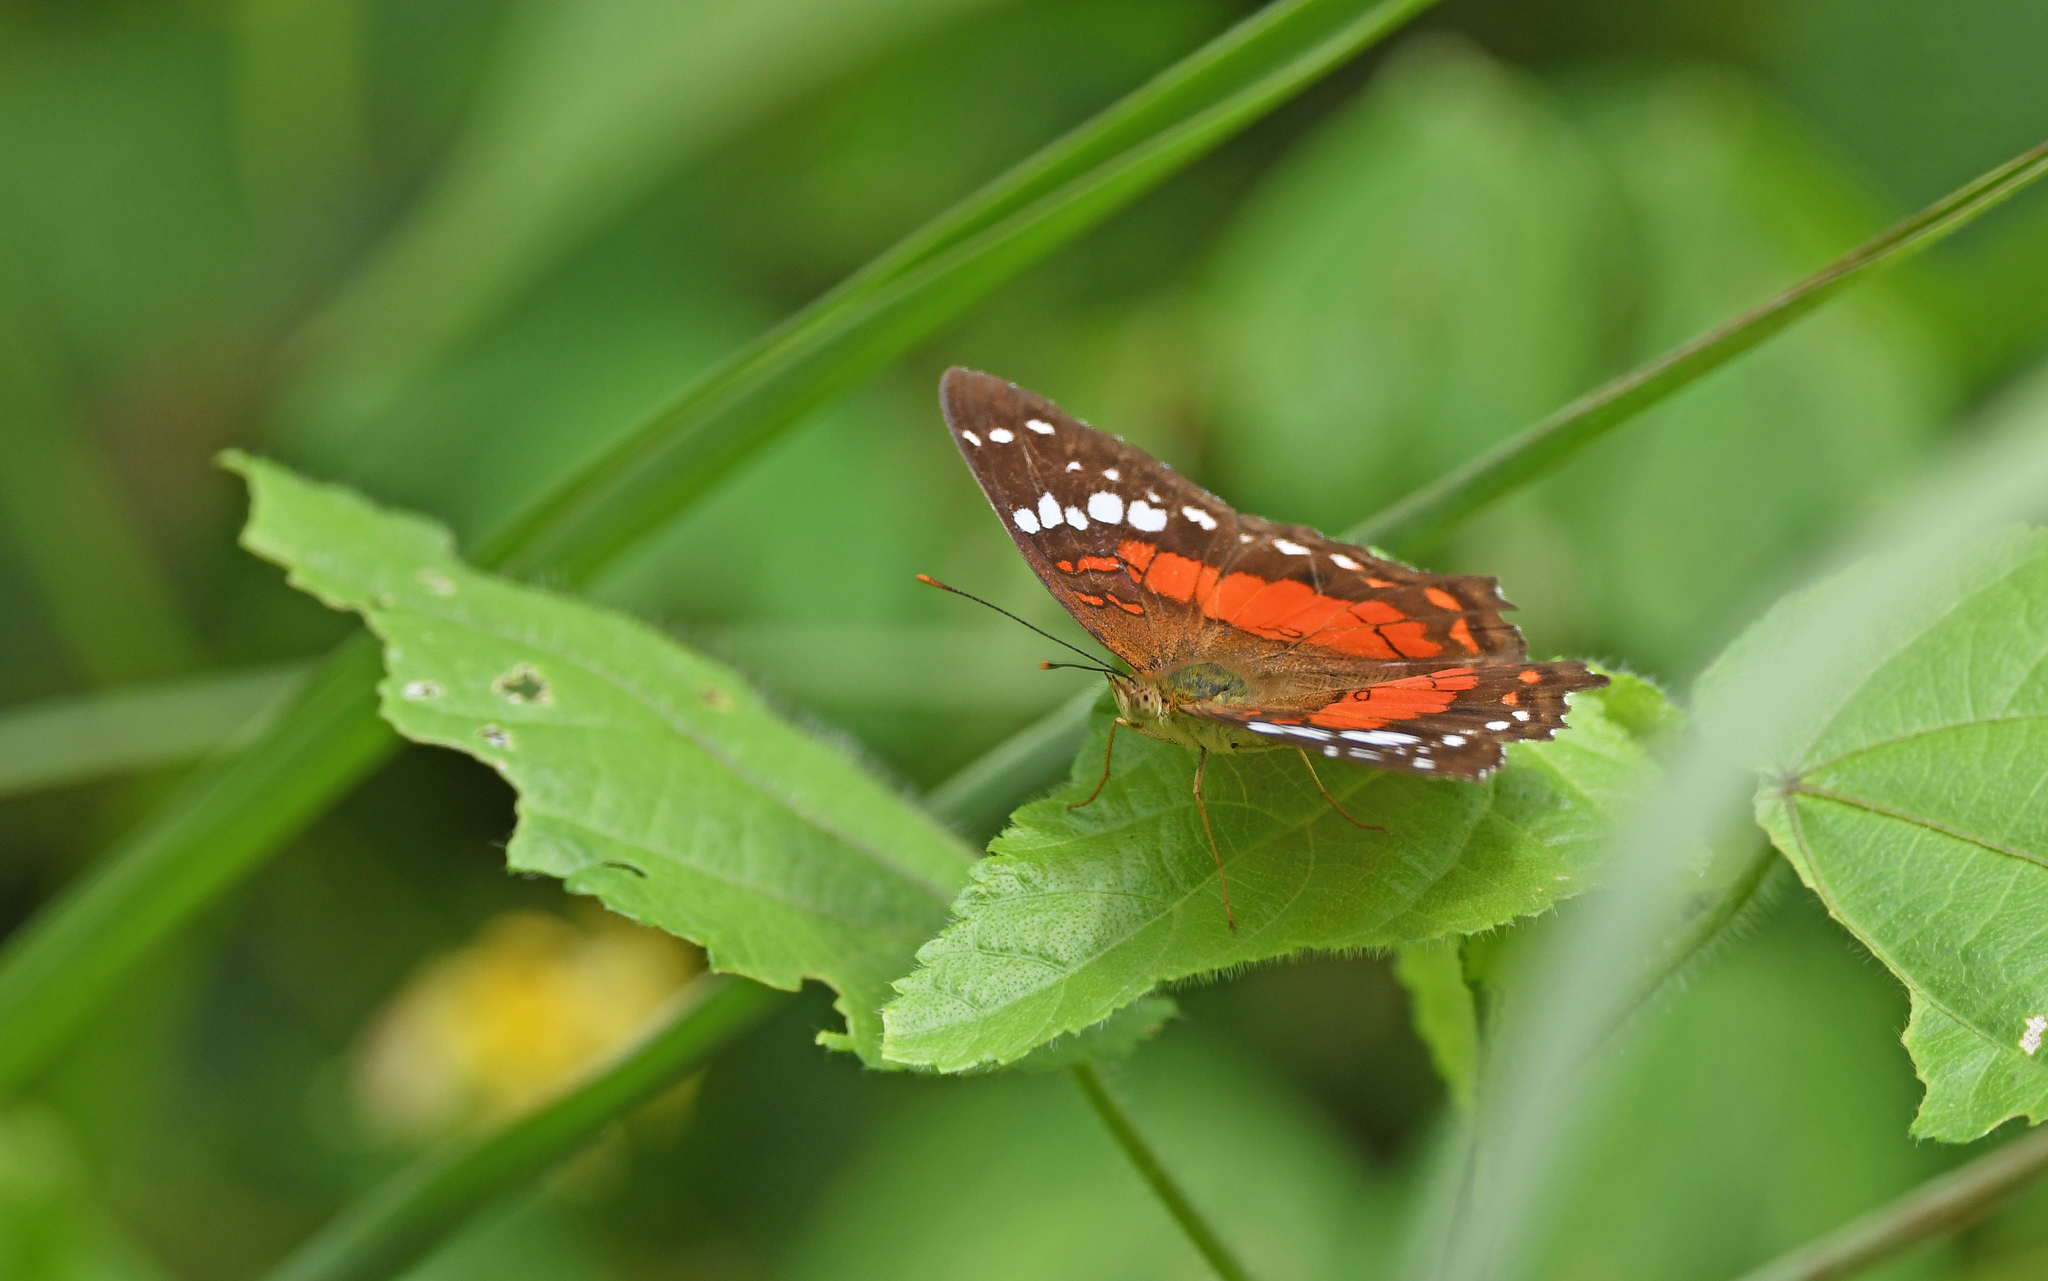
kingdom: Animalia
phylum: Arthropoda
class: Insecta
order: Lepidoptera
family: Nymphalidae
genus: Anartia
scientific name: Anartia amathea
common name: Red peacock
